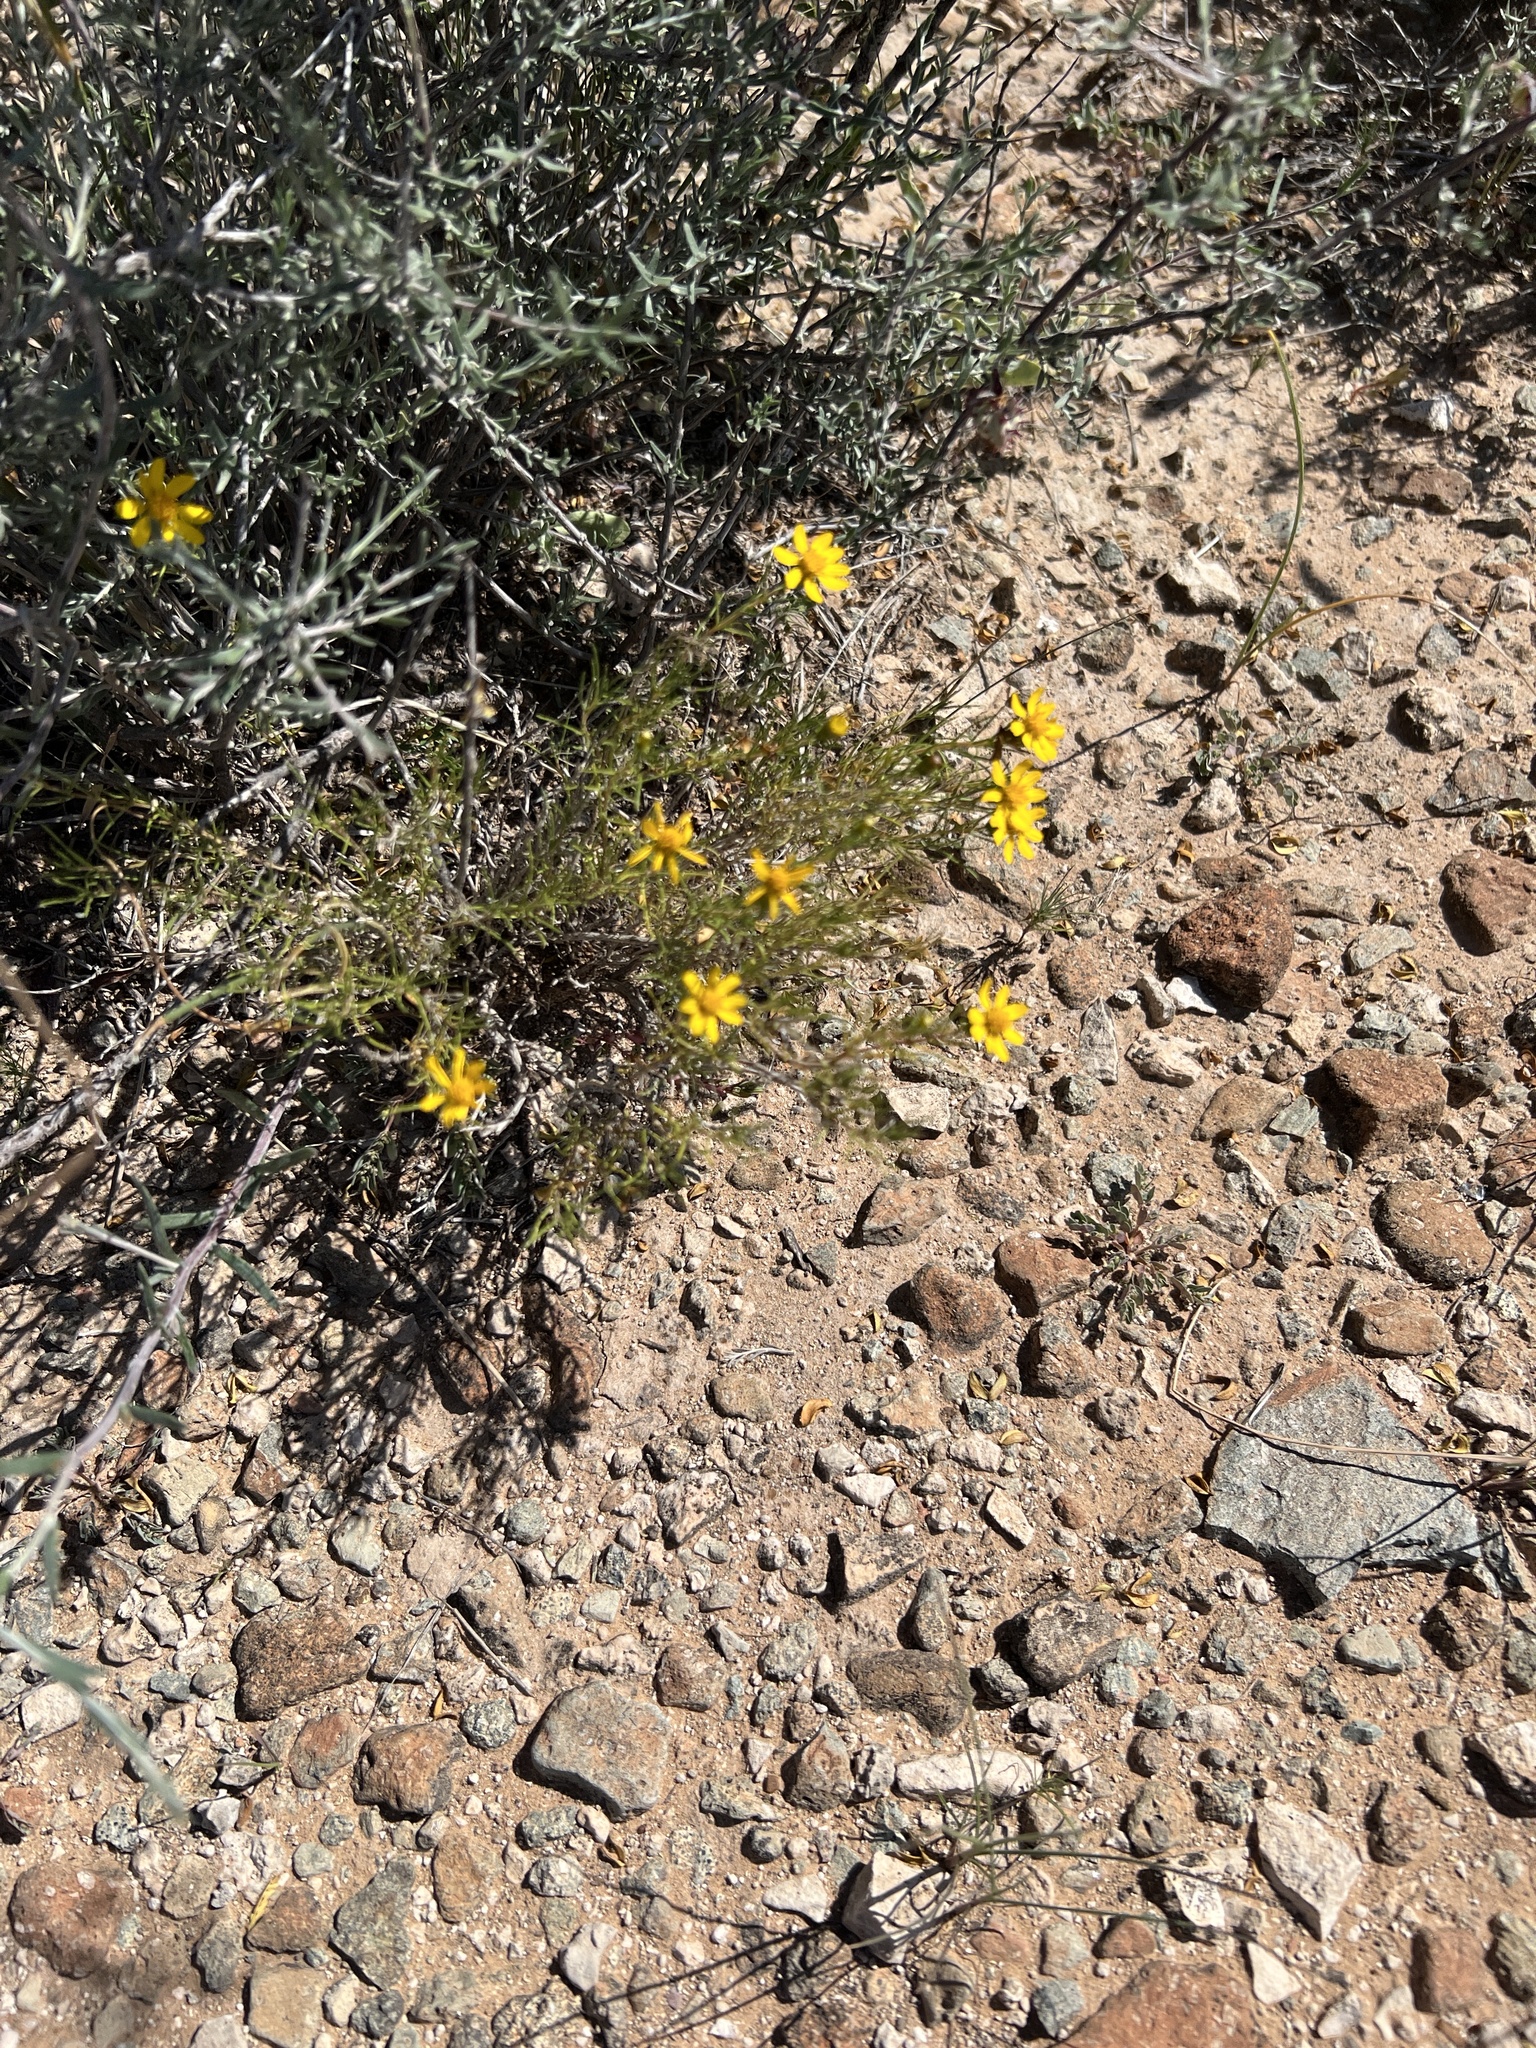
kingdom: Plantae
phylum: Tracheophyta
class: Magnoliopsida
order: Asterales
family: Asteraceae
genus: Thymophylla
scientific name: Thymophylla acerosa
